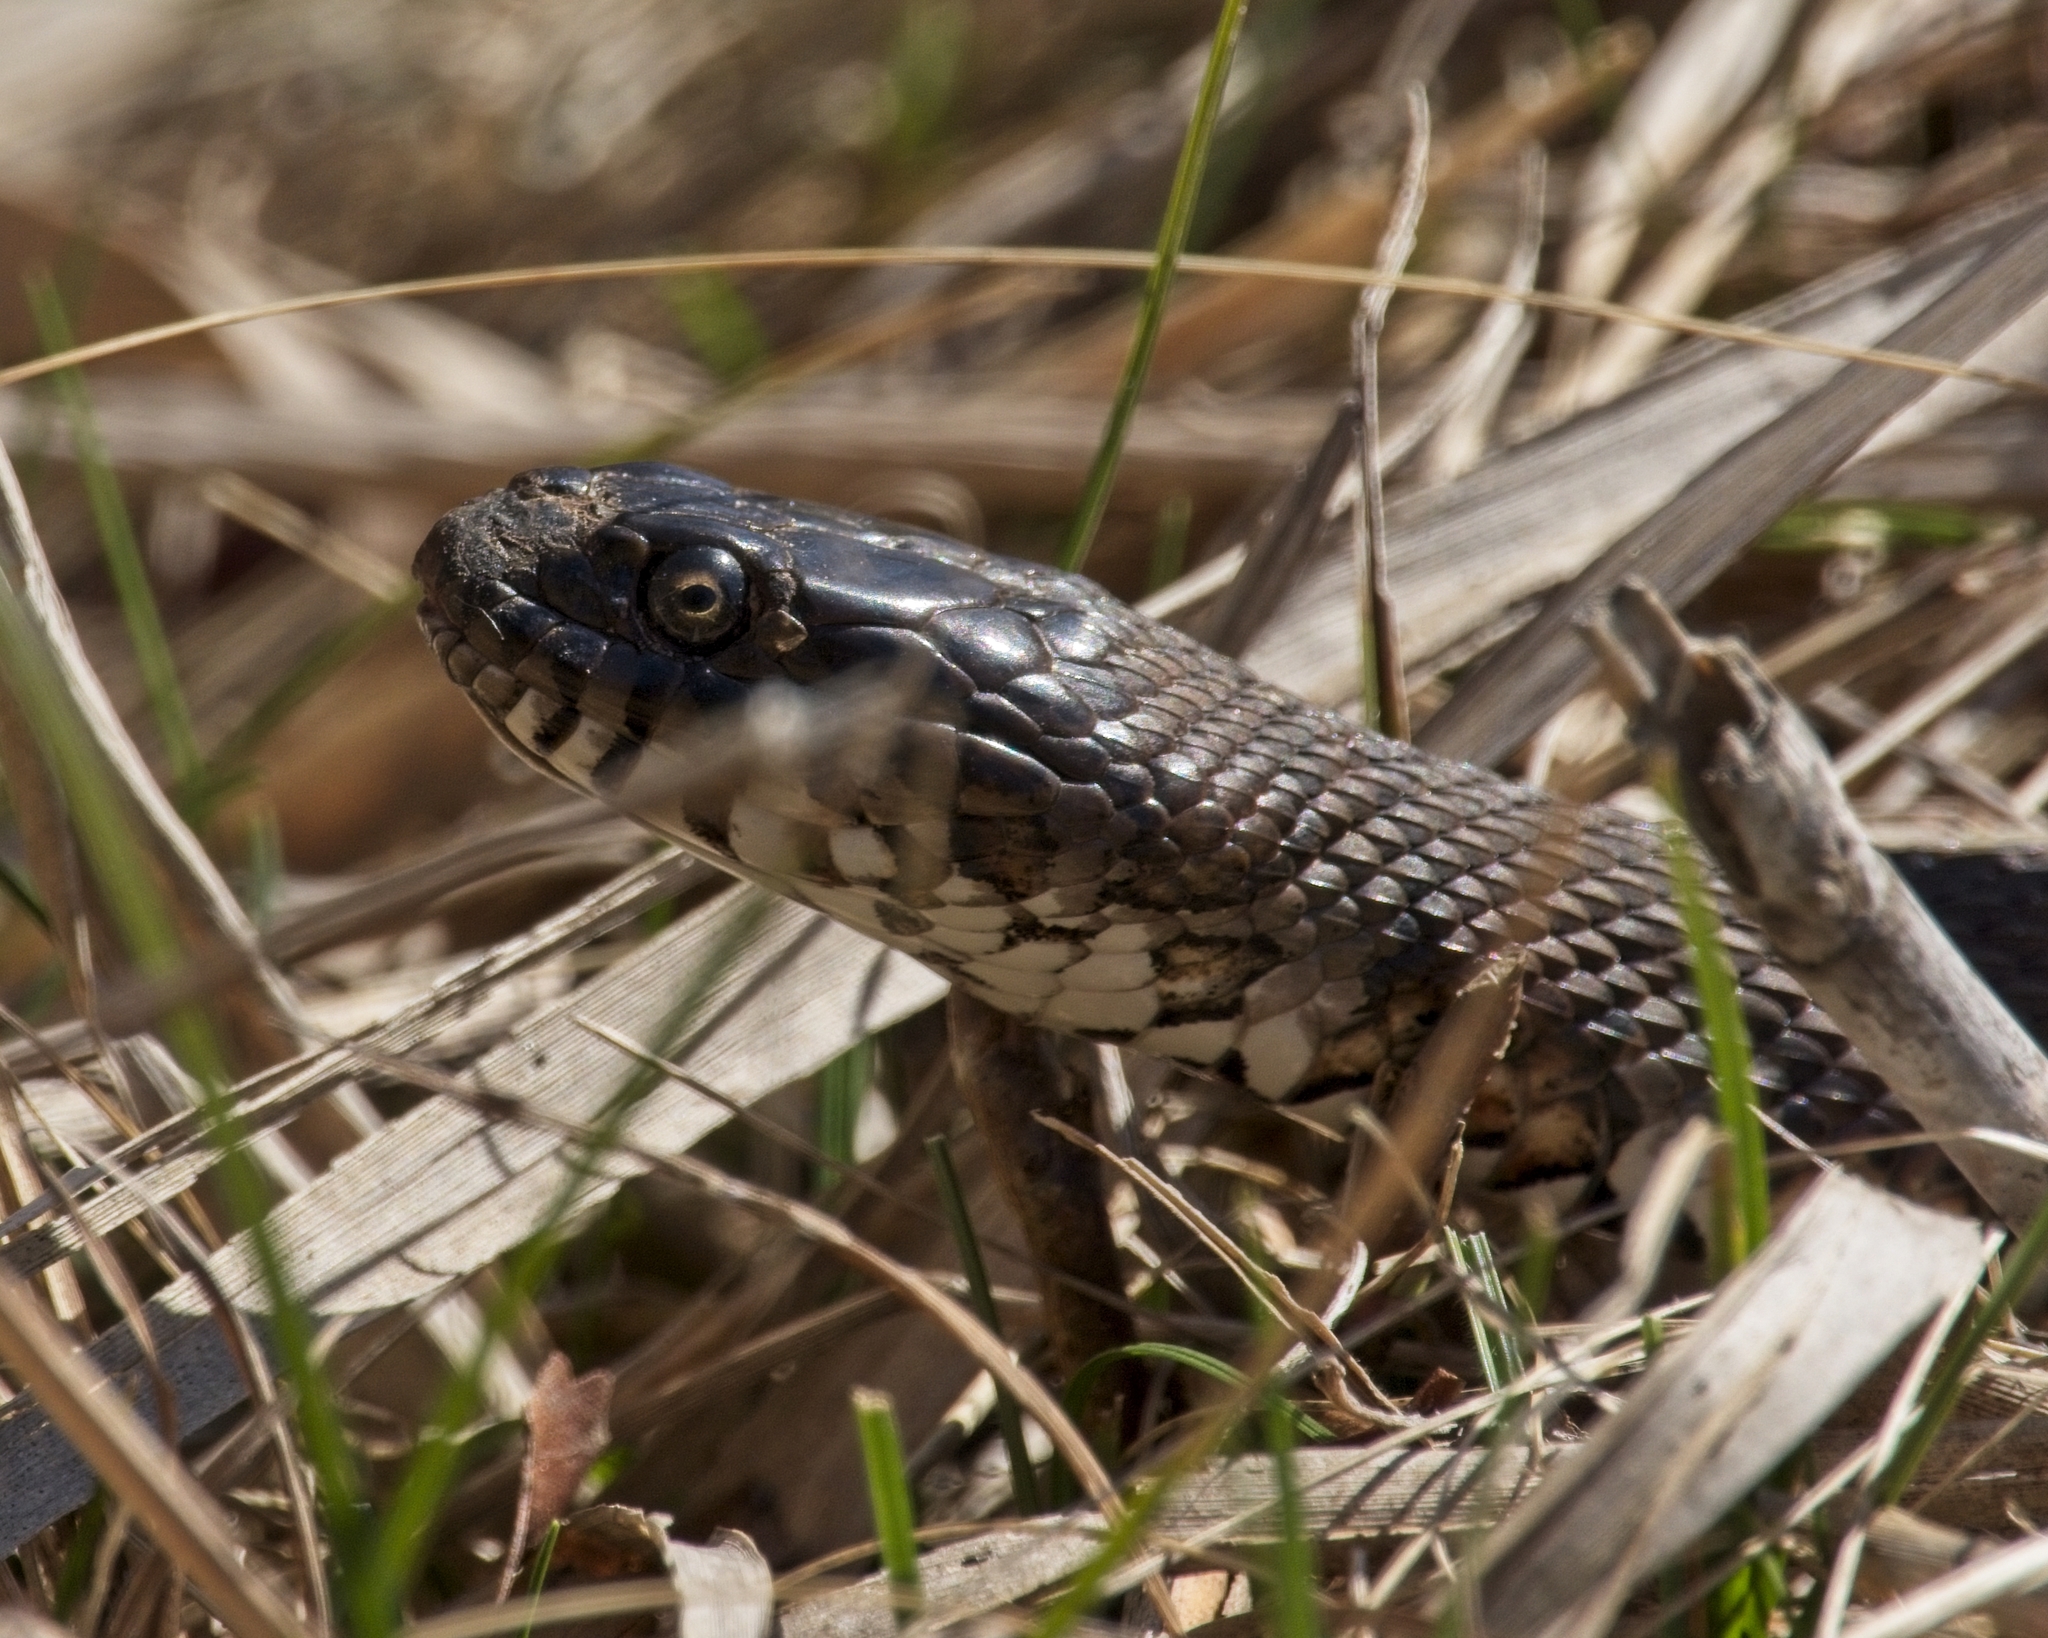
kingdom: Animalia
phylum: Chordata
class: Squamata
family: Colubridae
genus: Nerodia
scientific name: Nerodia sipedon
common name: Northern water snake
